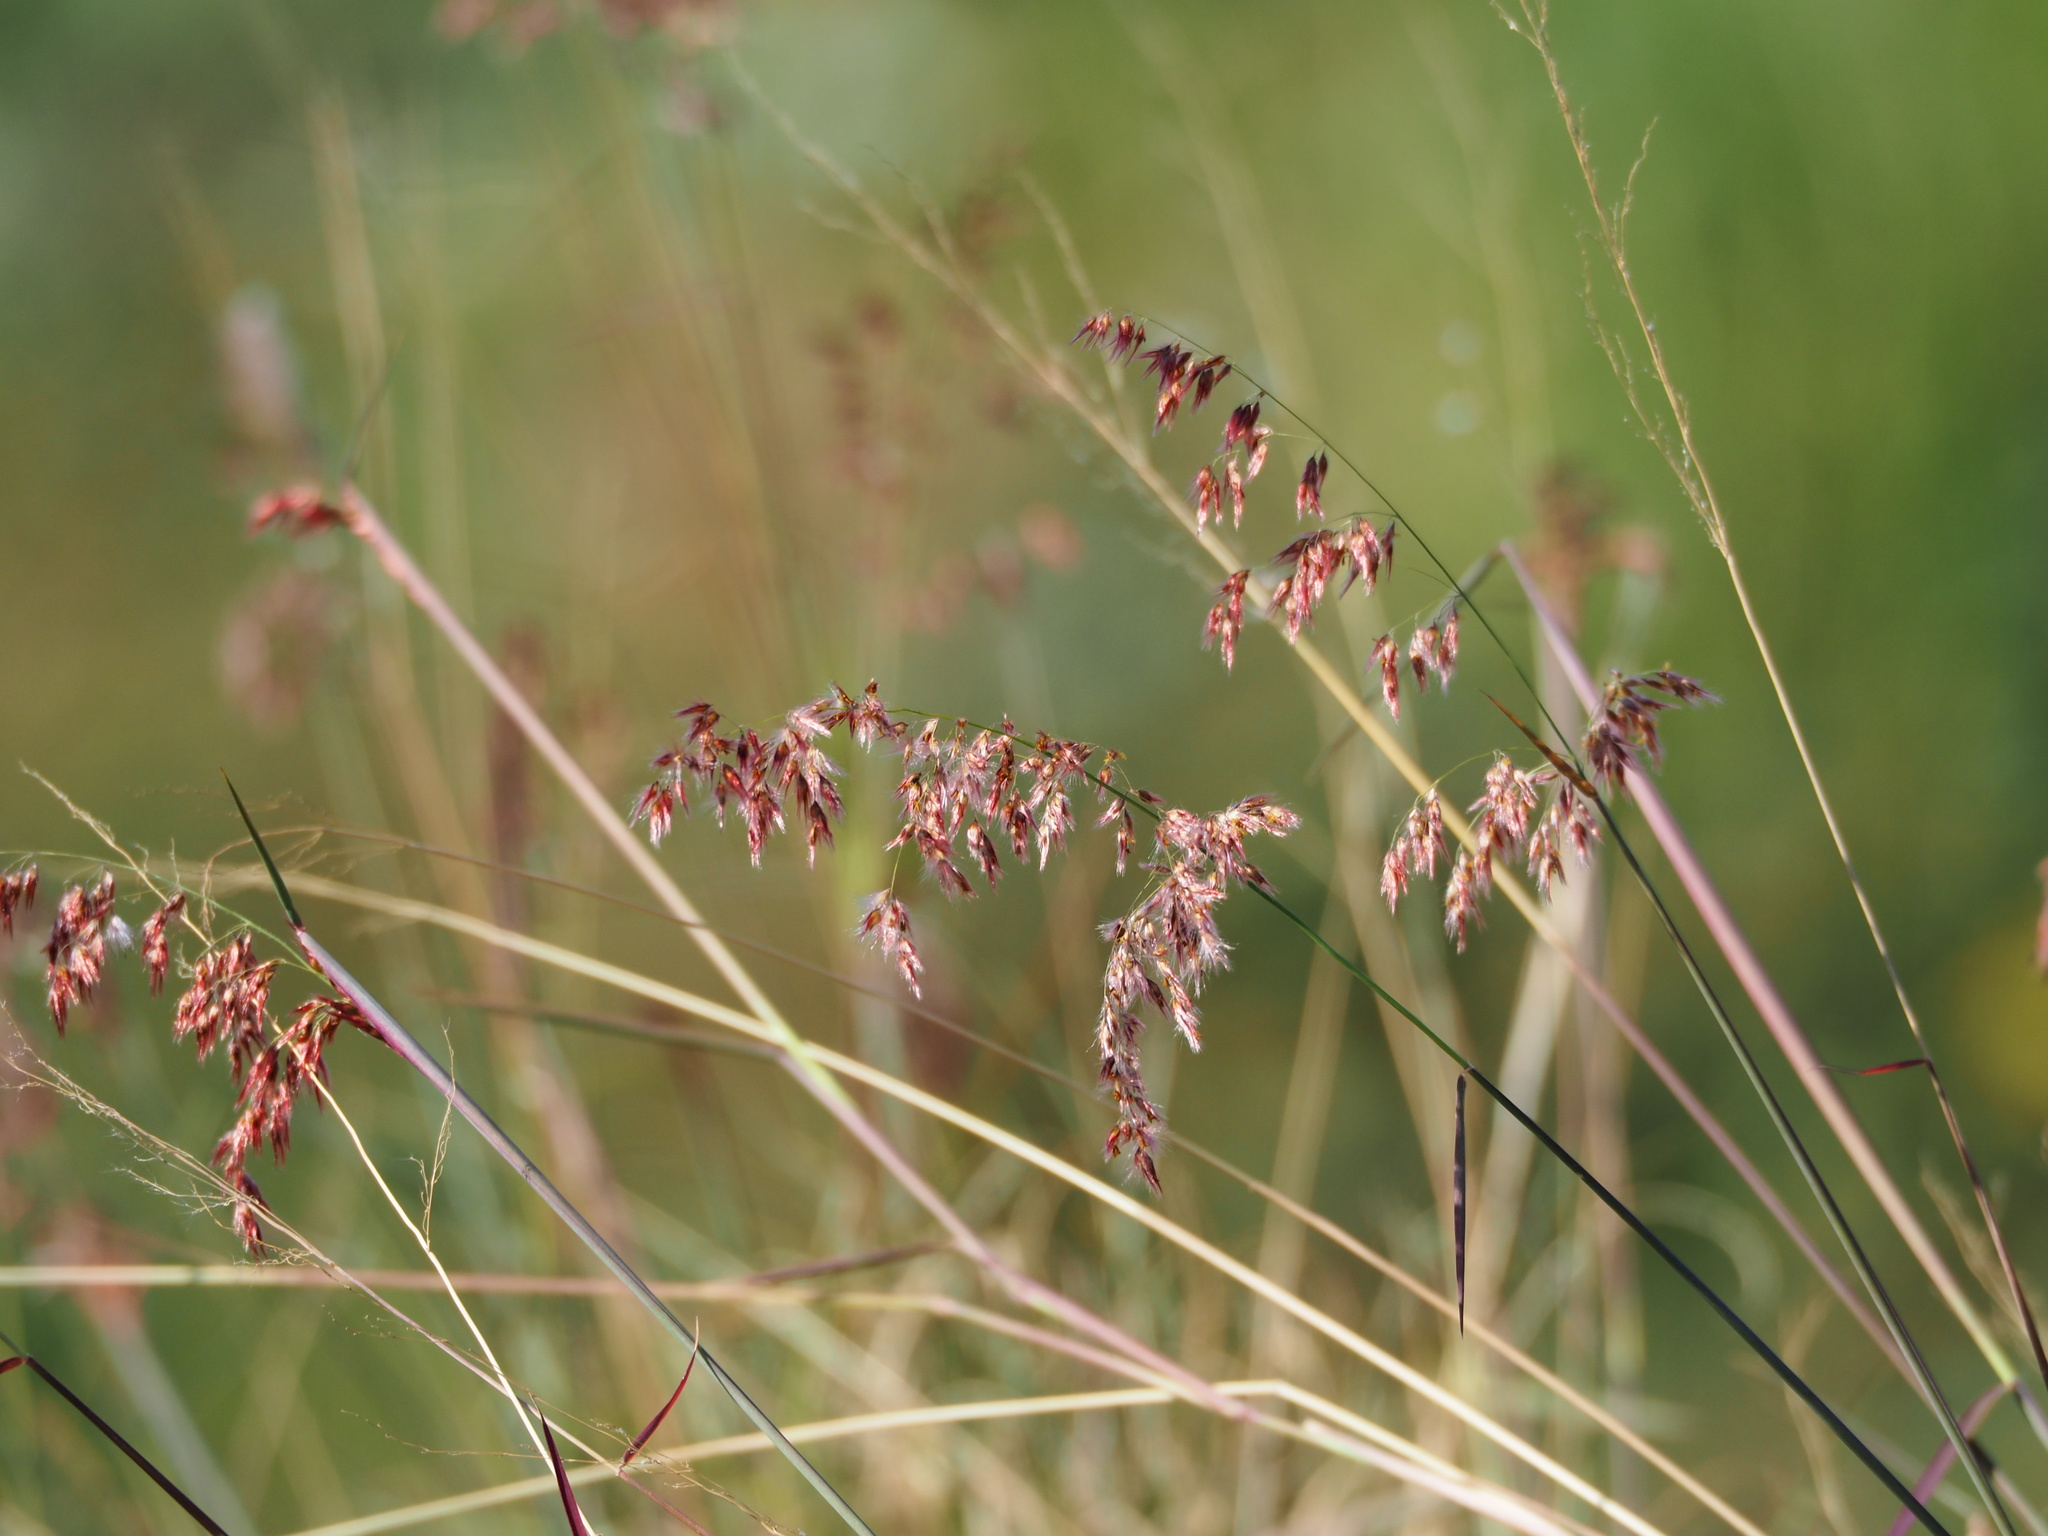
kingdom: Plantae
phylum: Tracheophyta
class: Liliopsida
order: Poales
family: Poaceae
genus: Melinis
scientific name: Melinis repens
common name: Rose natal grass
